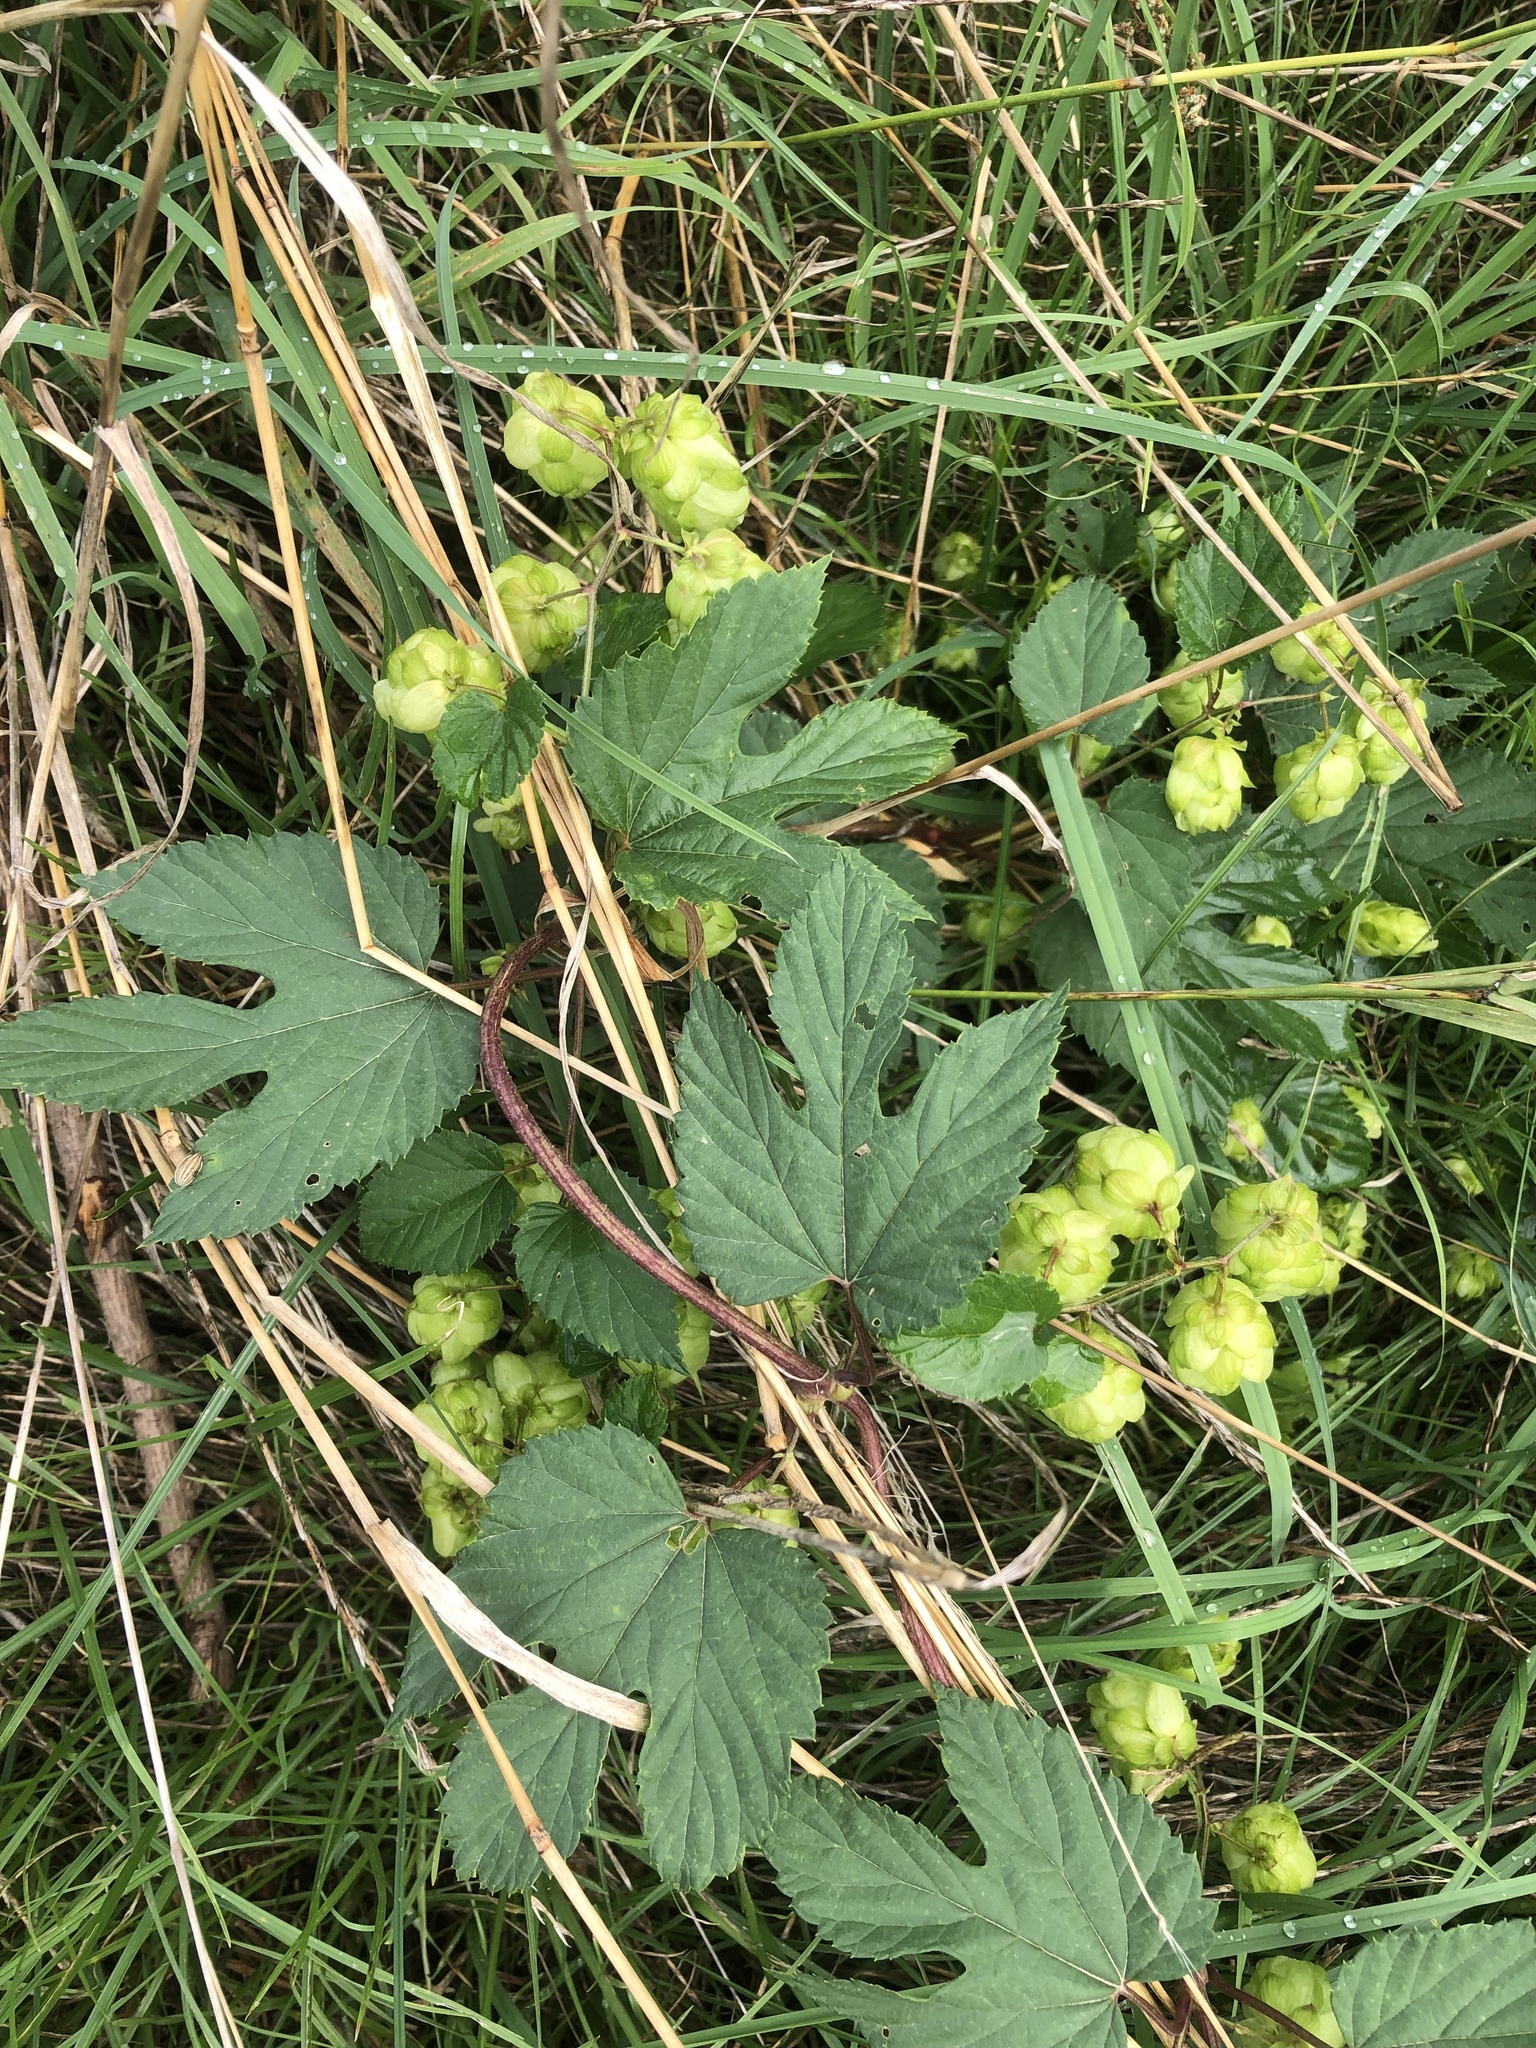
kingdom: Plantae
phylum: Tracheophyta
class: Magnoliopsida
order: Rosales
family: Cannabaceae
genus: Humulus
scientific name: Humulus lupulus
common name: Hop
